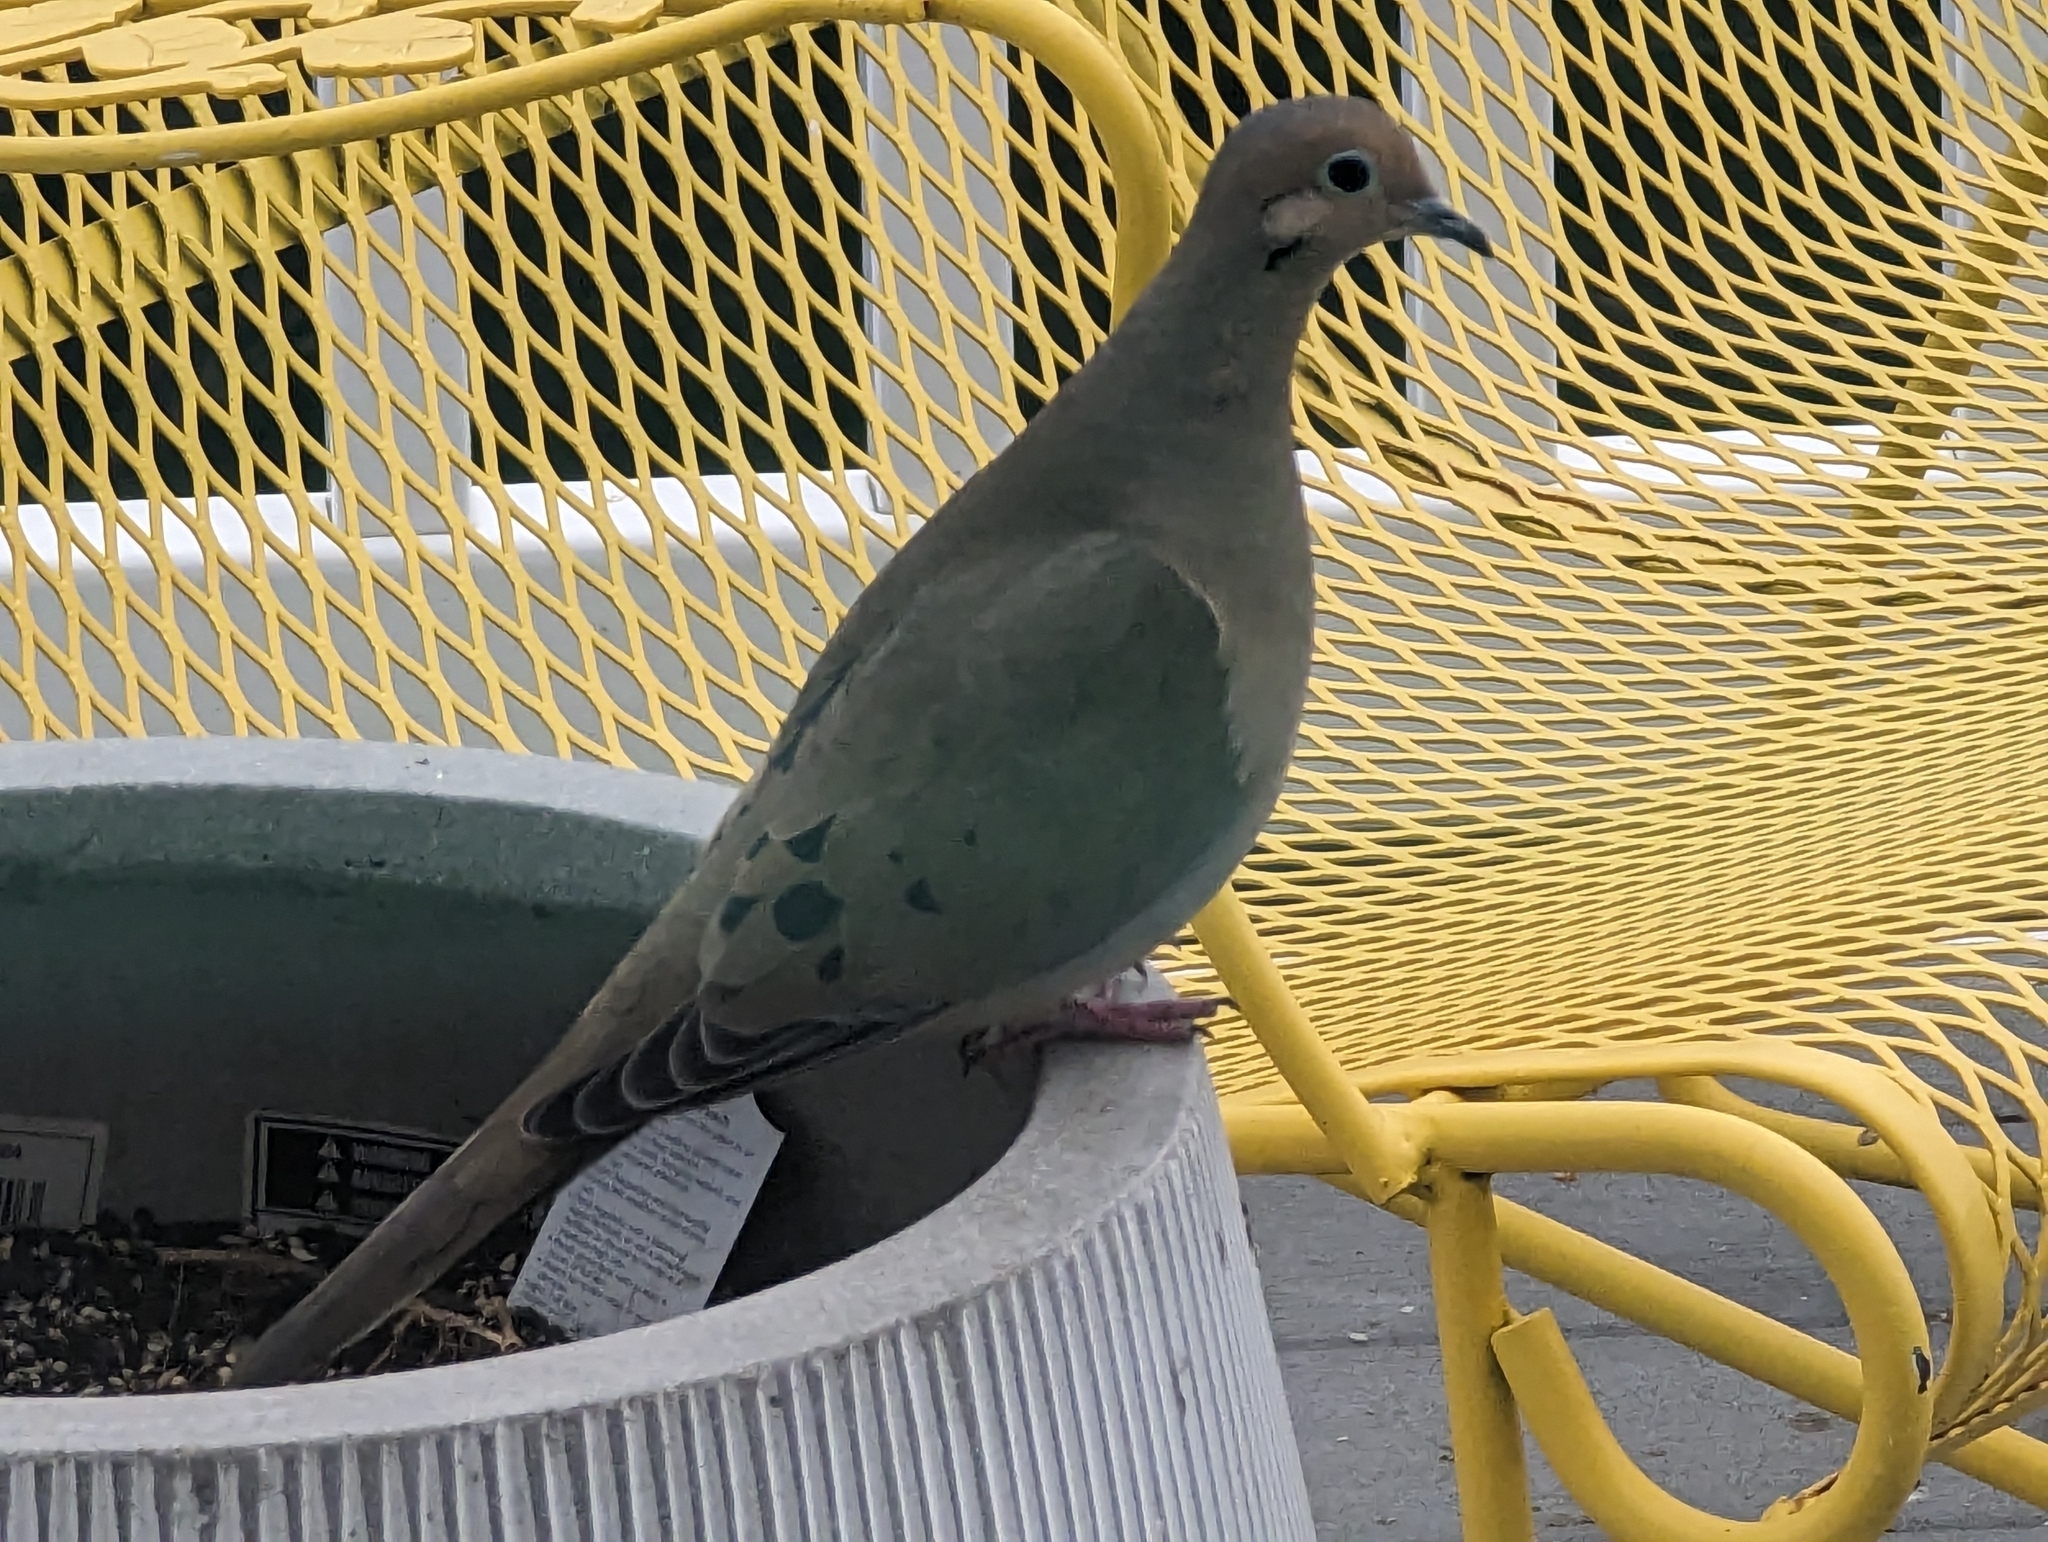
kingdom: Animalia
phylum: Chordata
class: Aves
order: Columbiformes
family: Columbidae
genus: Zenaida
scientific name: Zenaida macroura
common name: Mourning dove
